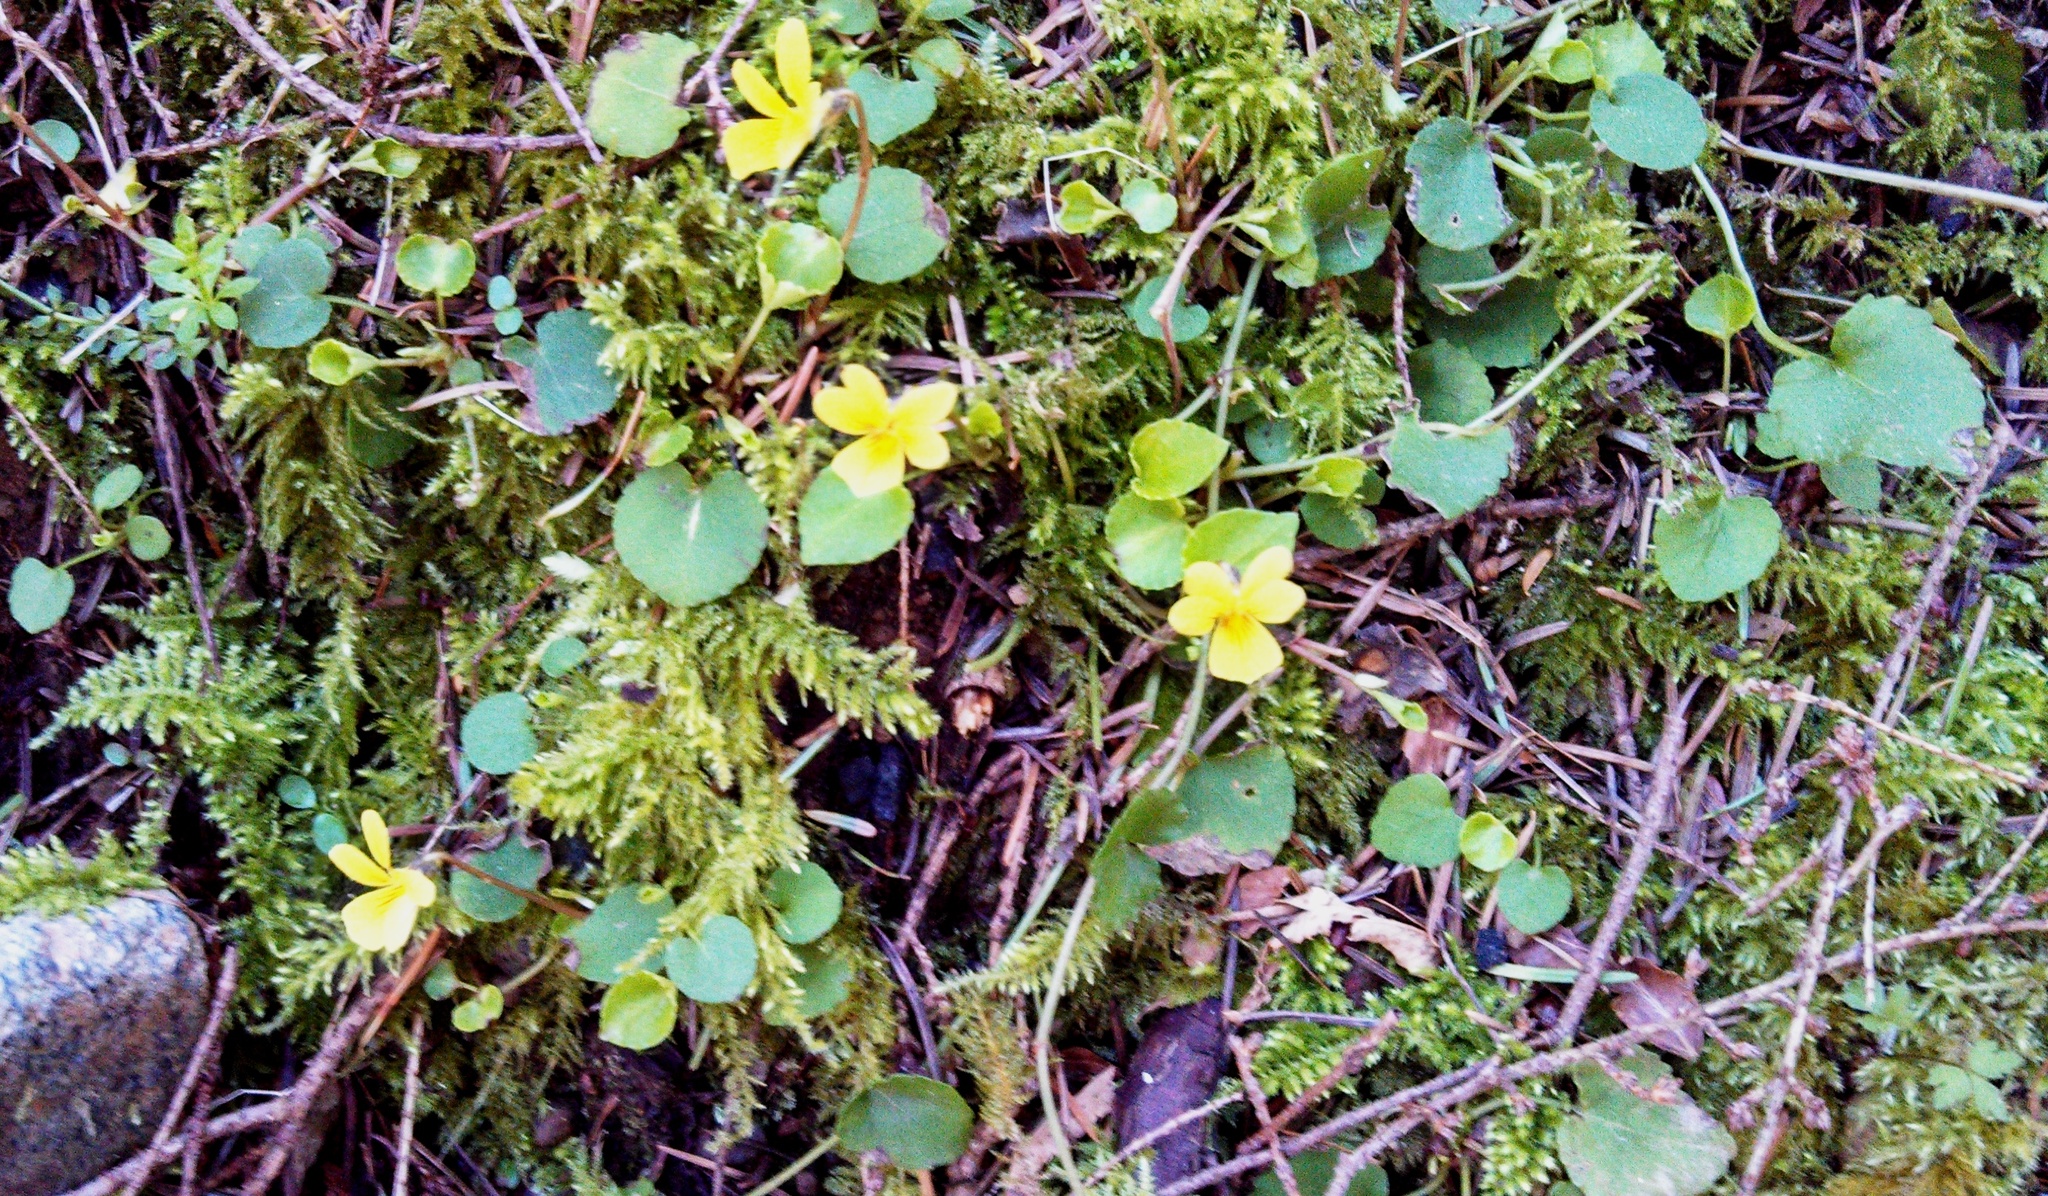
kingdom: Plantae
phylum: Tracheophyta
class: Magnoliopsida
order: Malpighiales
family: Violaceae
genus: Viola
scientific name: Viola sempervirens
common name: Evergreen violet
